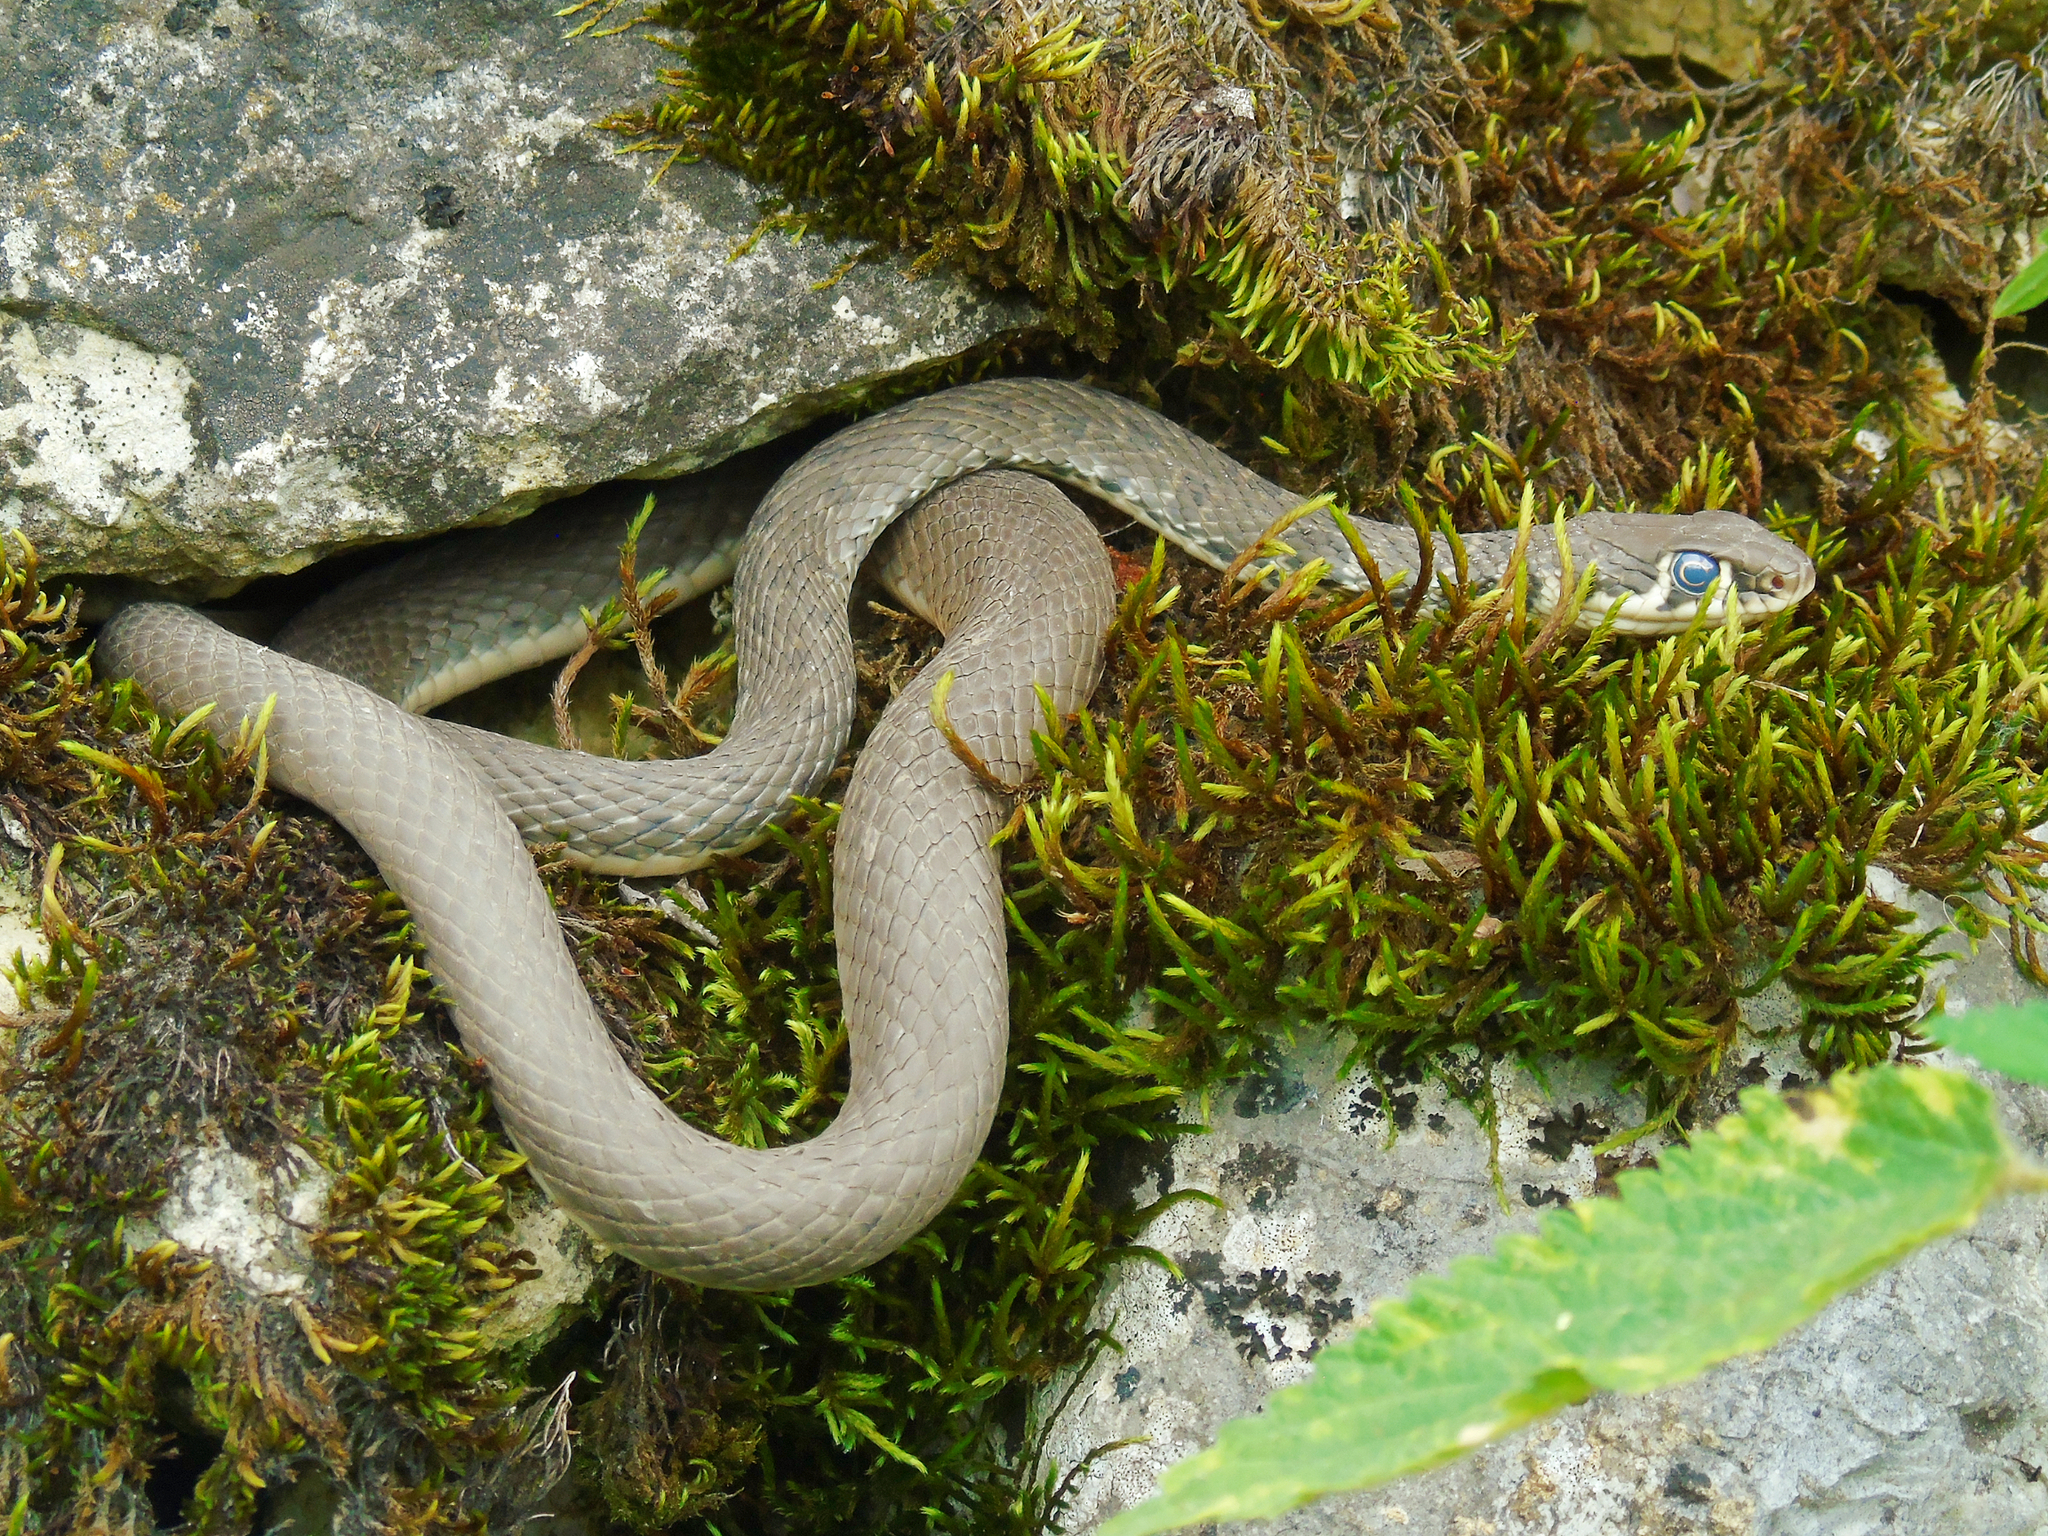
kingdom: Animalia
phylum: Chordata
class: Squamata
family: Colubridae
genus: Platyceps
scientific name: Platyceps najadum
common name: Dahl's whip snake
